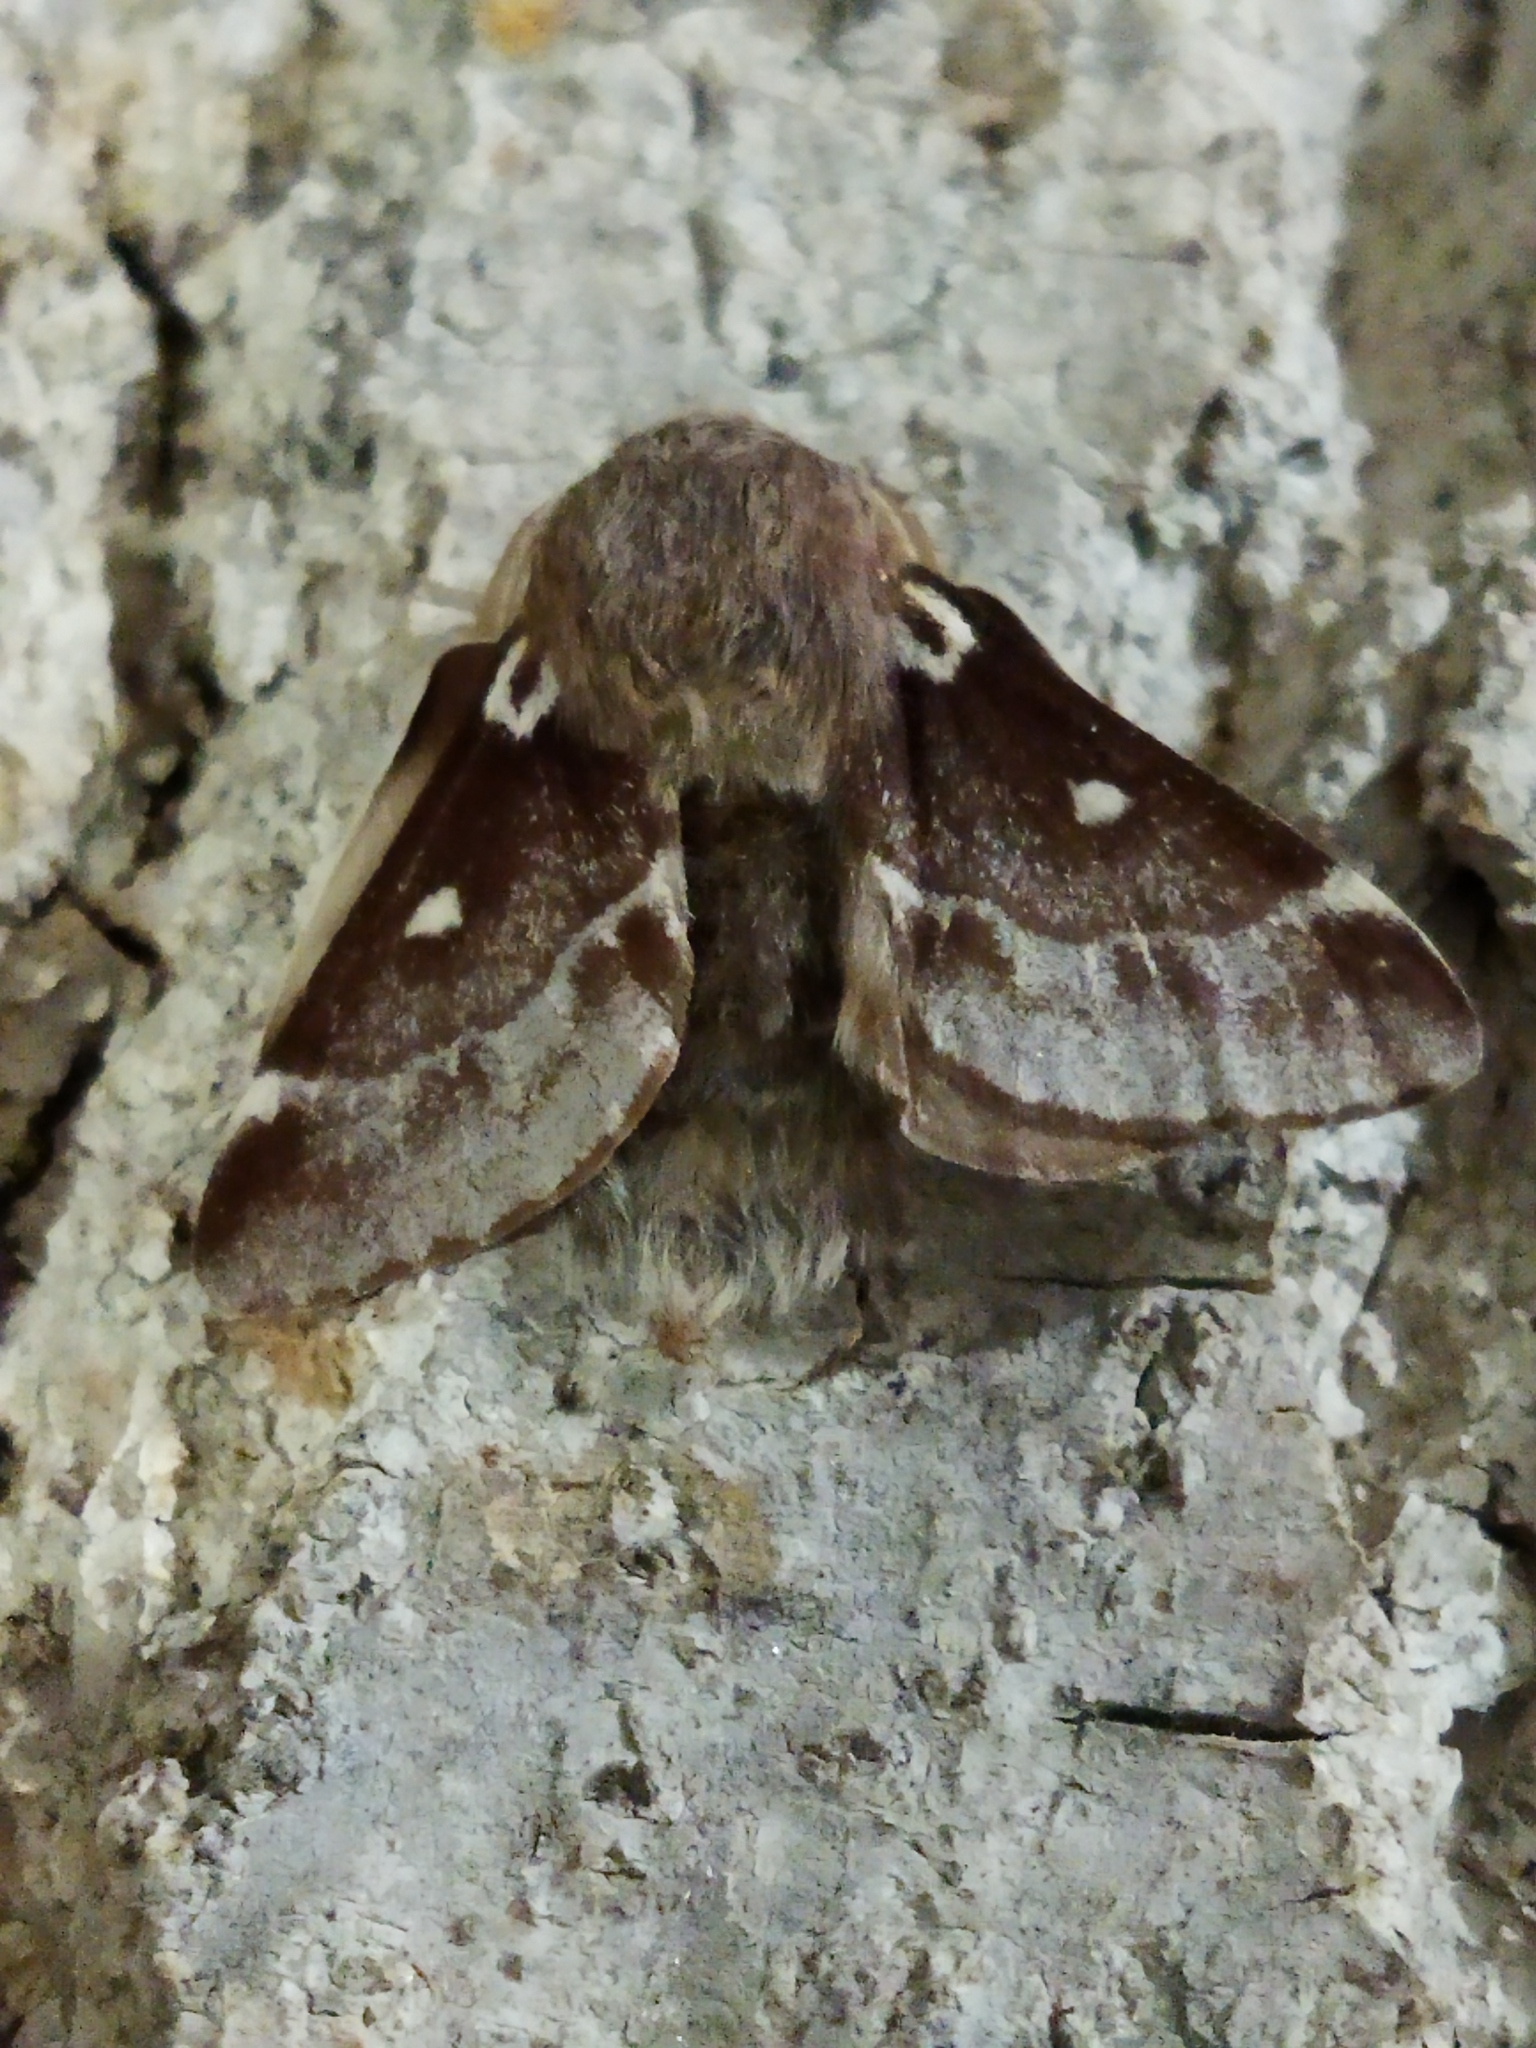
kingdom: Animalia
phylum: Arthropoda
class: Insecta
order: Lepidoptera
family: Lasiocampidae
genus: Eriogaster
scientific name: Eriogaster lanestris
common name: Small eggar
